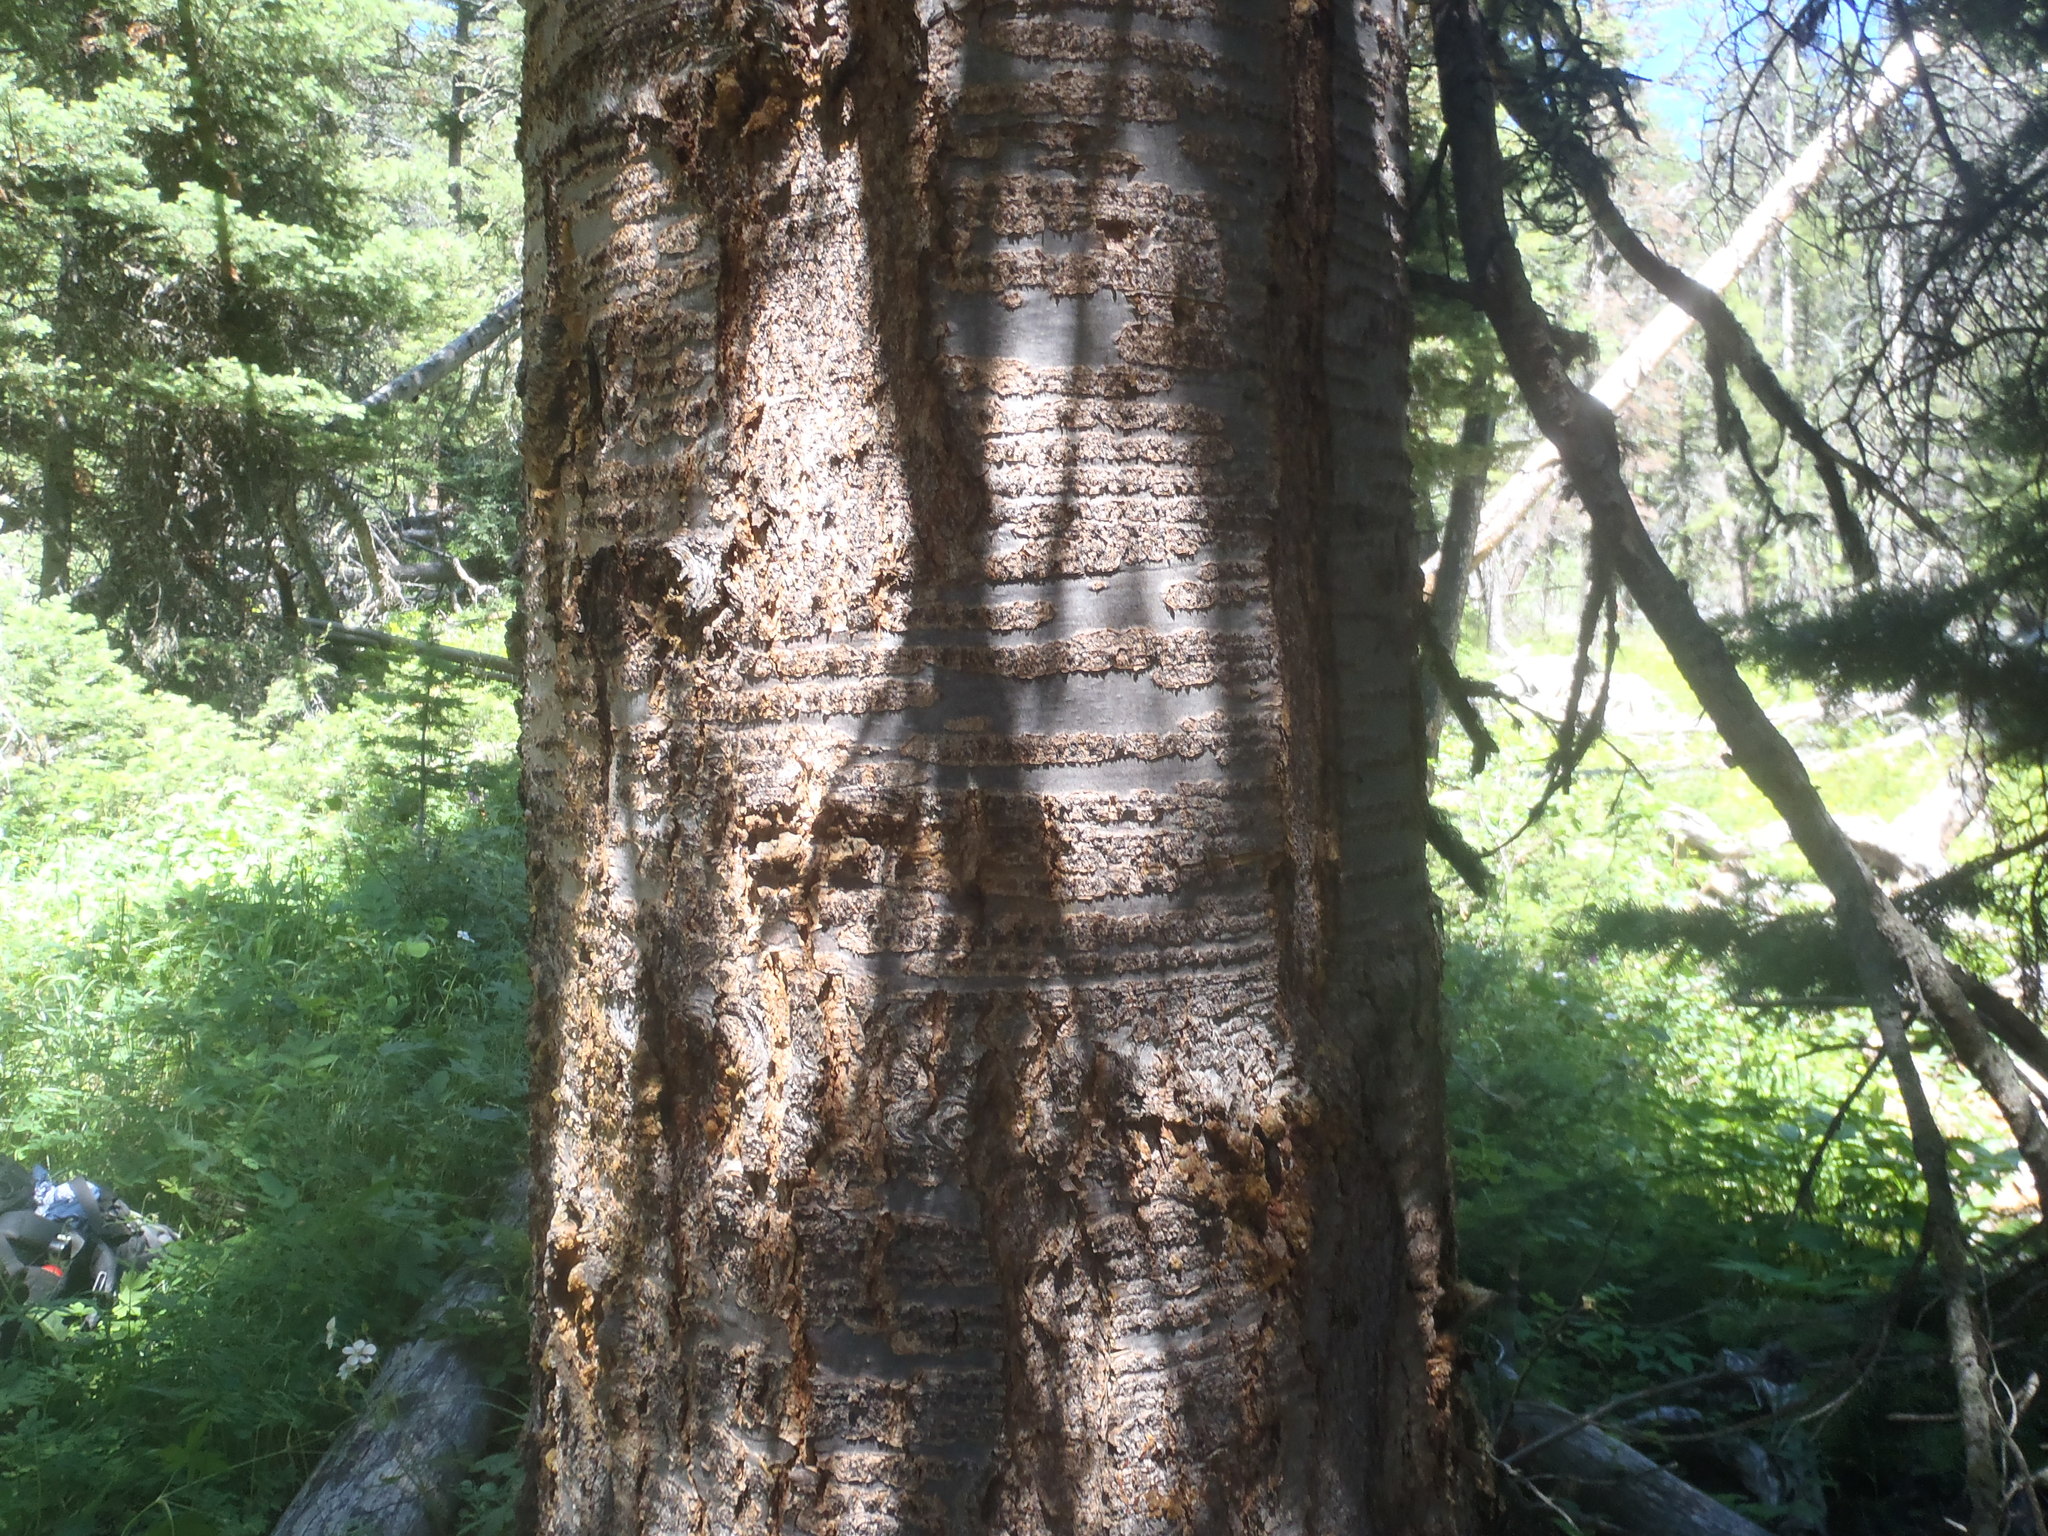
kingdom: Plantae
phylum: Tracheophyta
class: Pinopsida
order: Pinales
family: Pinaceae
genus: Abies
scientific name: Abies lasiocarpa
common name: Subalpine fir
